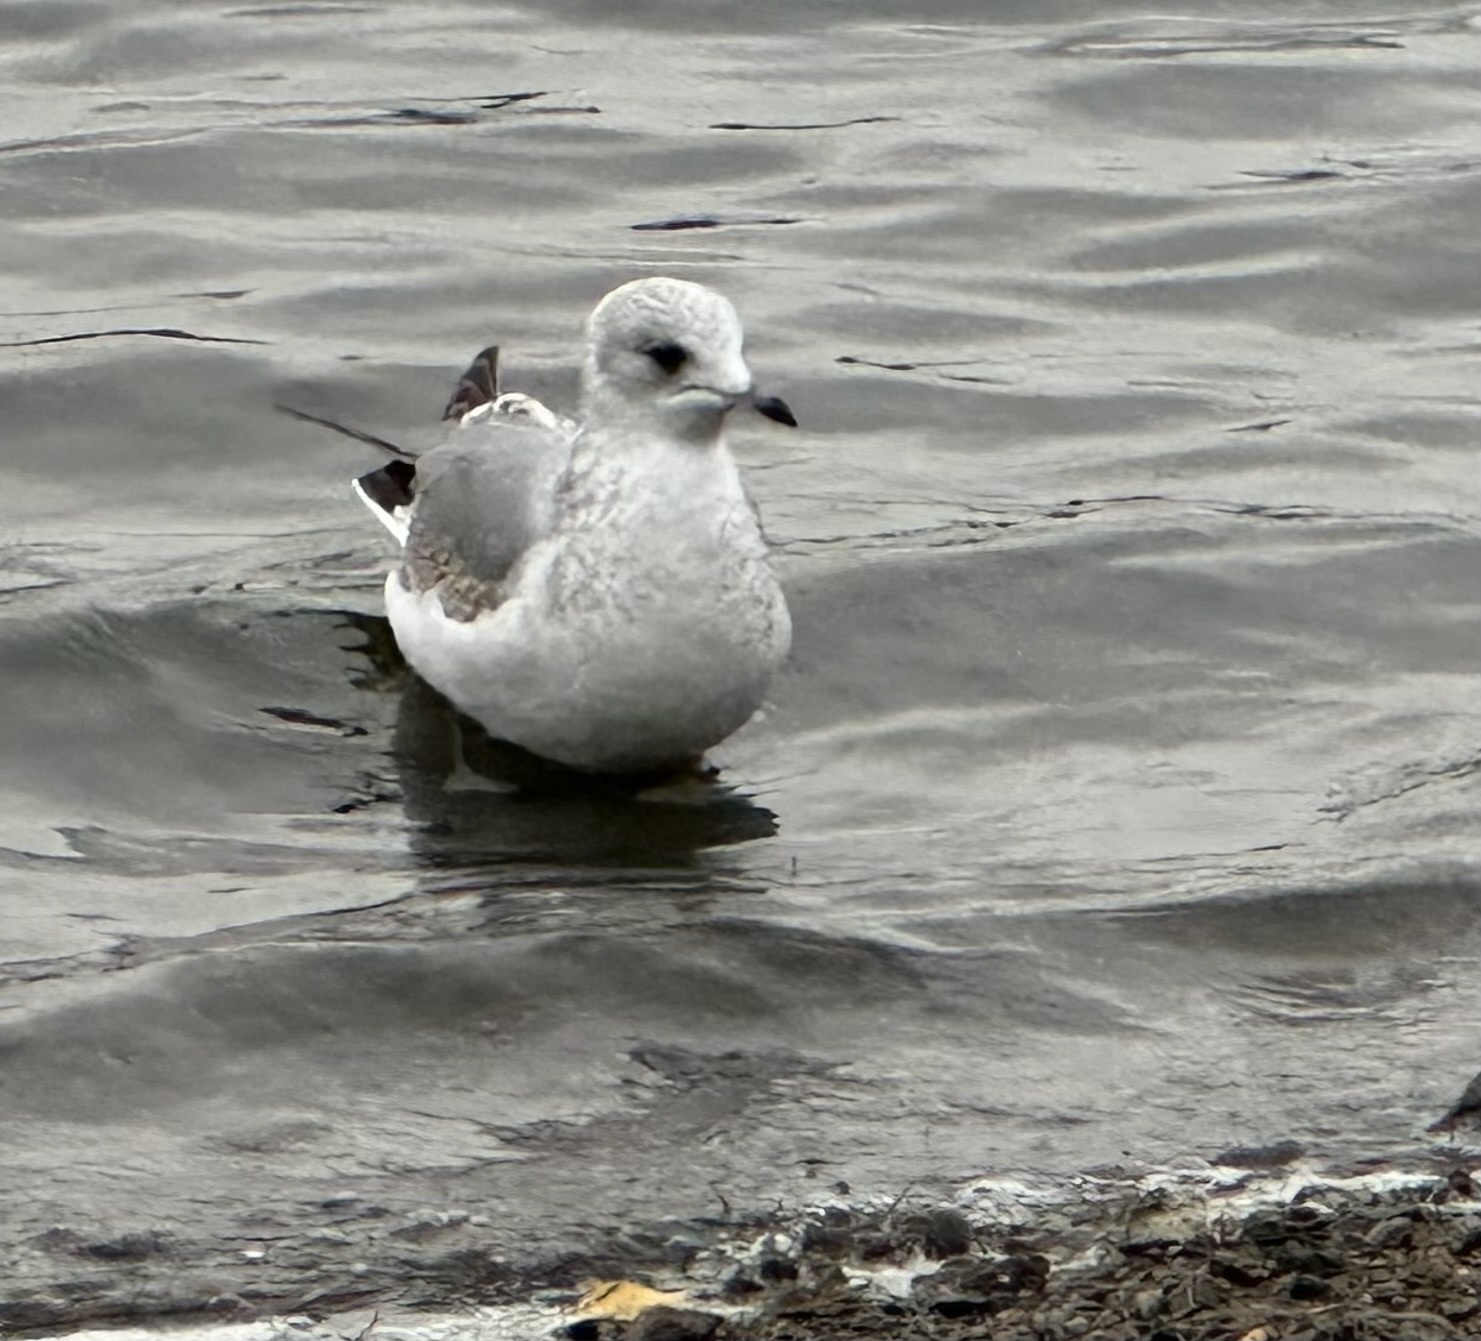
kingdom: Animalia
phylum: Chordata
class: Aves
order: Charadriiformes
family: Laridae
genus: Larus
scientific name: Larus canus
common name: Mew gull
